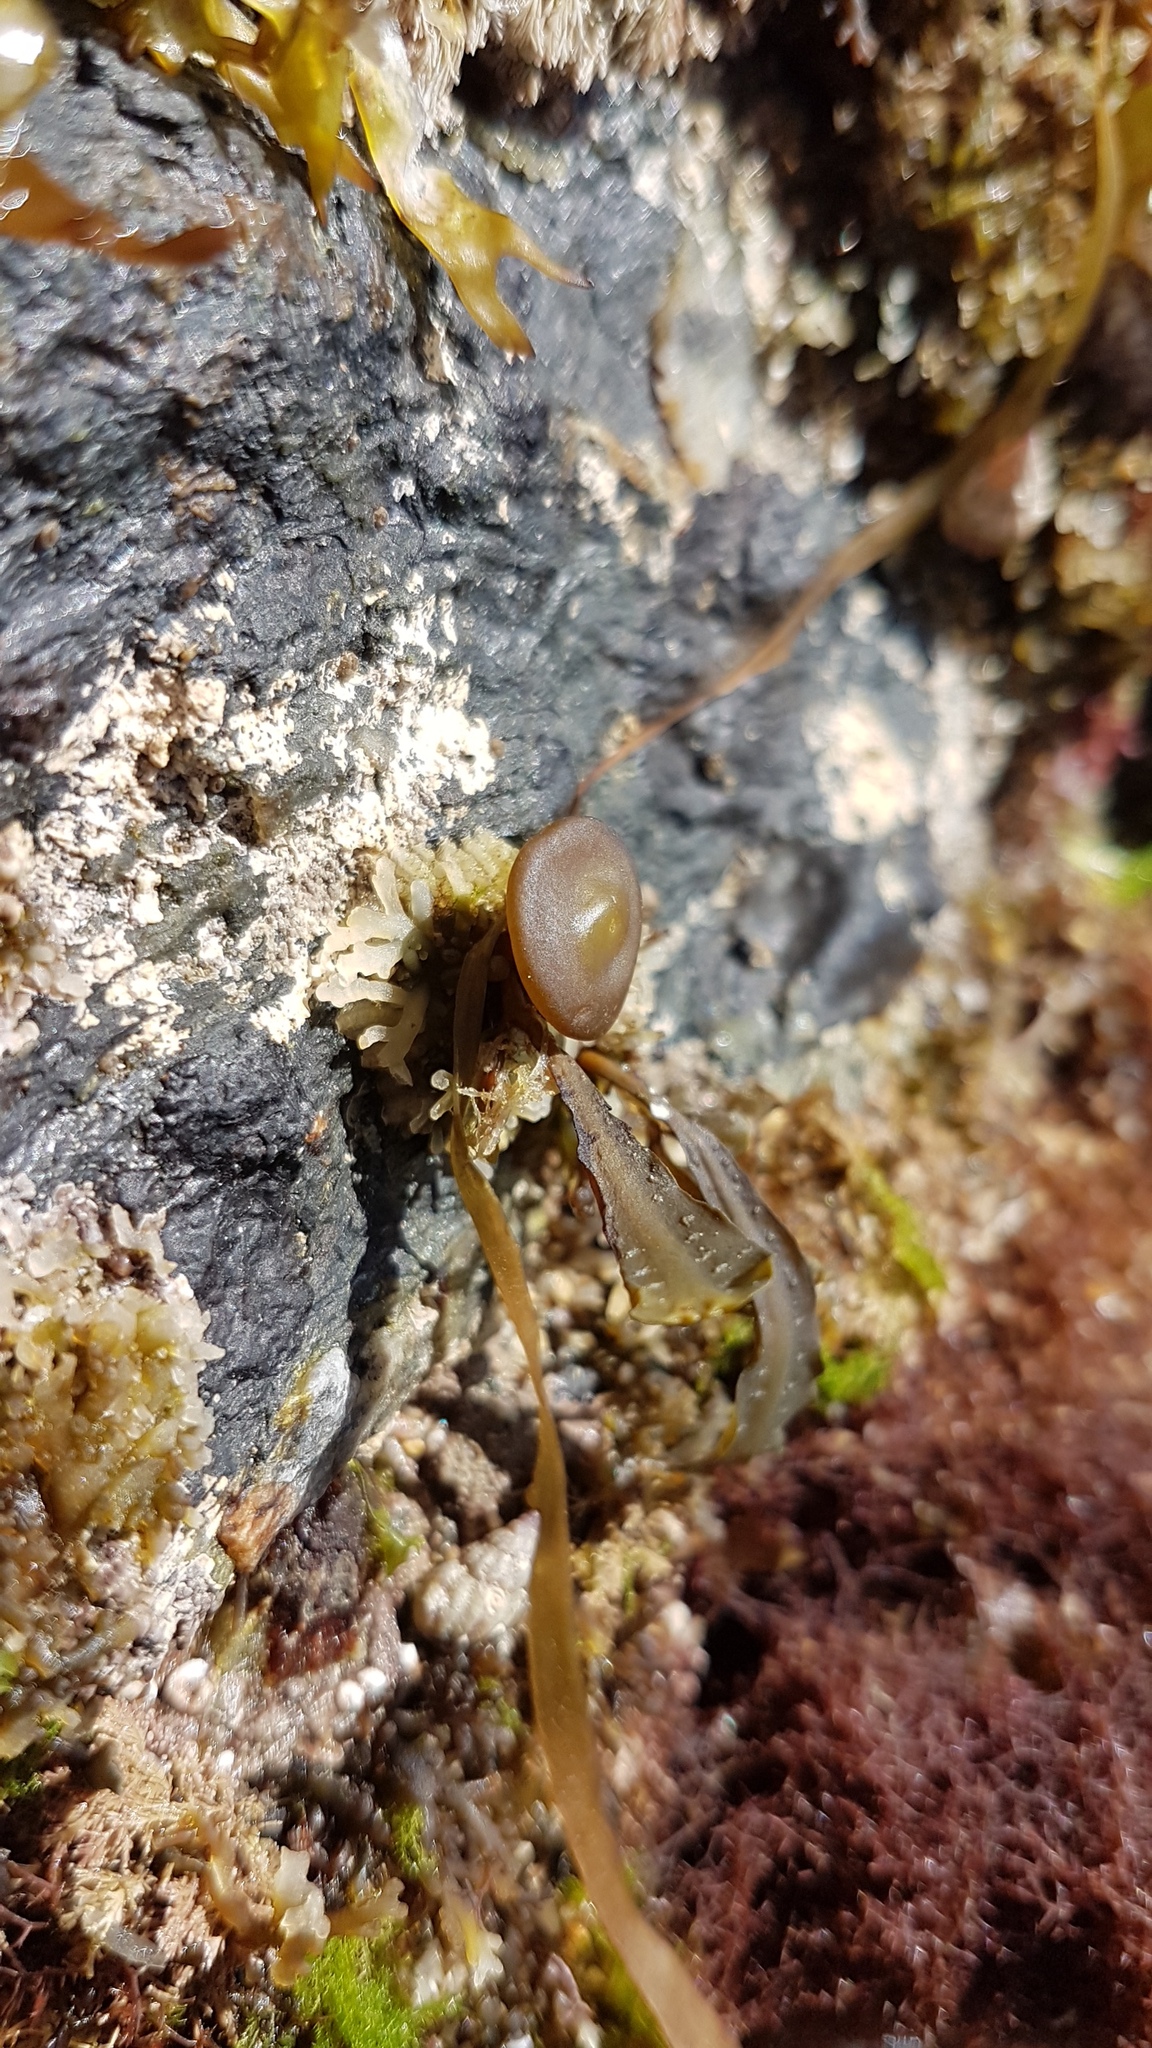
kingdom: Chromista
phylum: Ochrophyta
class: Phaeophyceae
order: Fucales
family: Himanthaliaceae
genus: Himanthalia
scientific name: Himanthalia elongata
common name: Sea-thong
